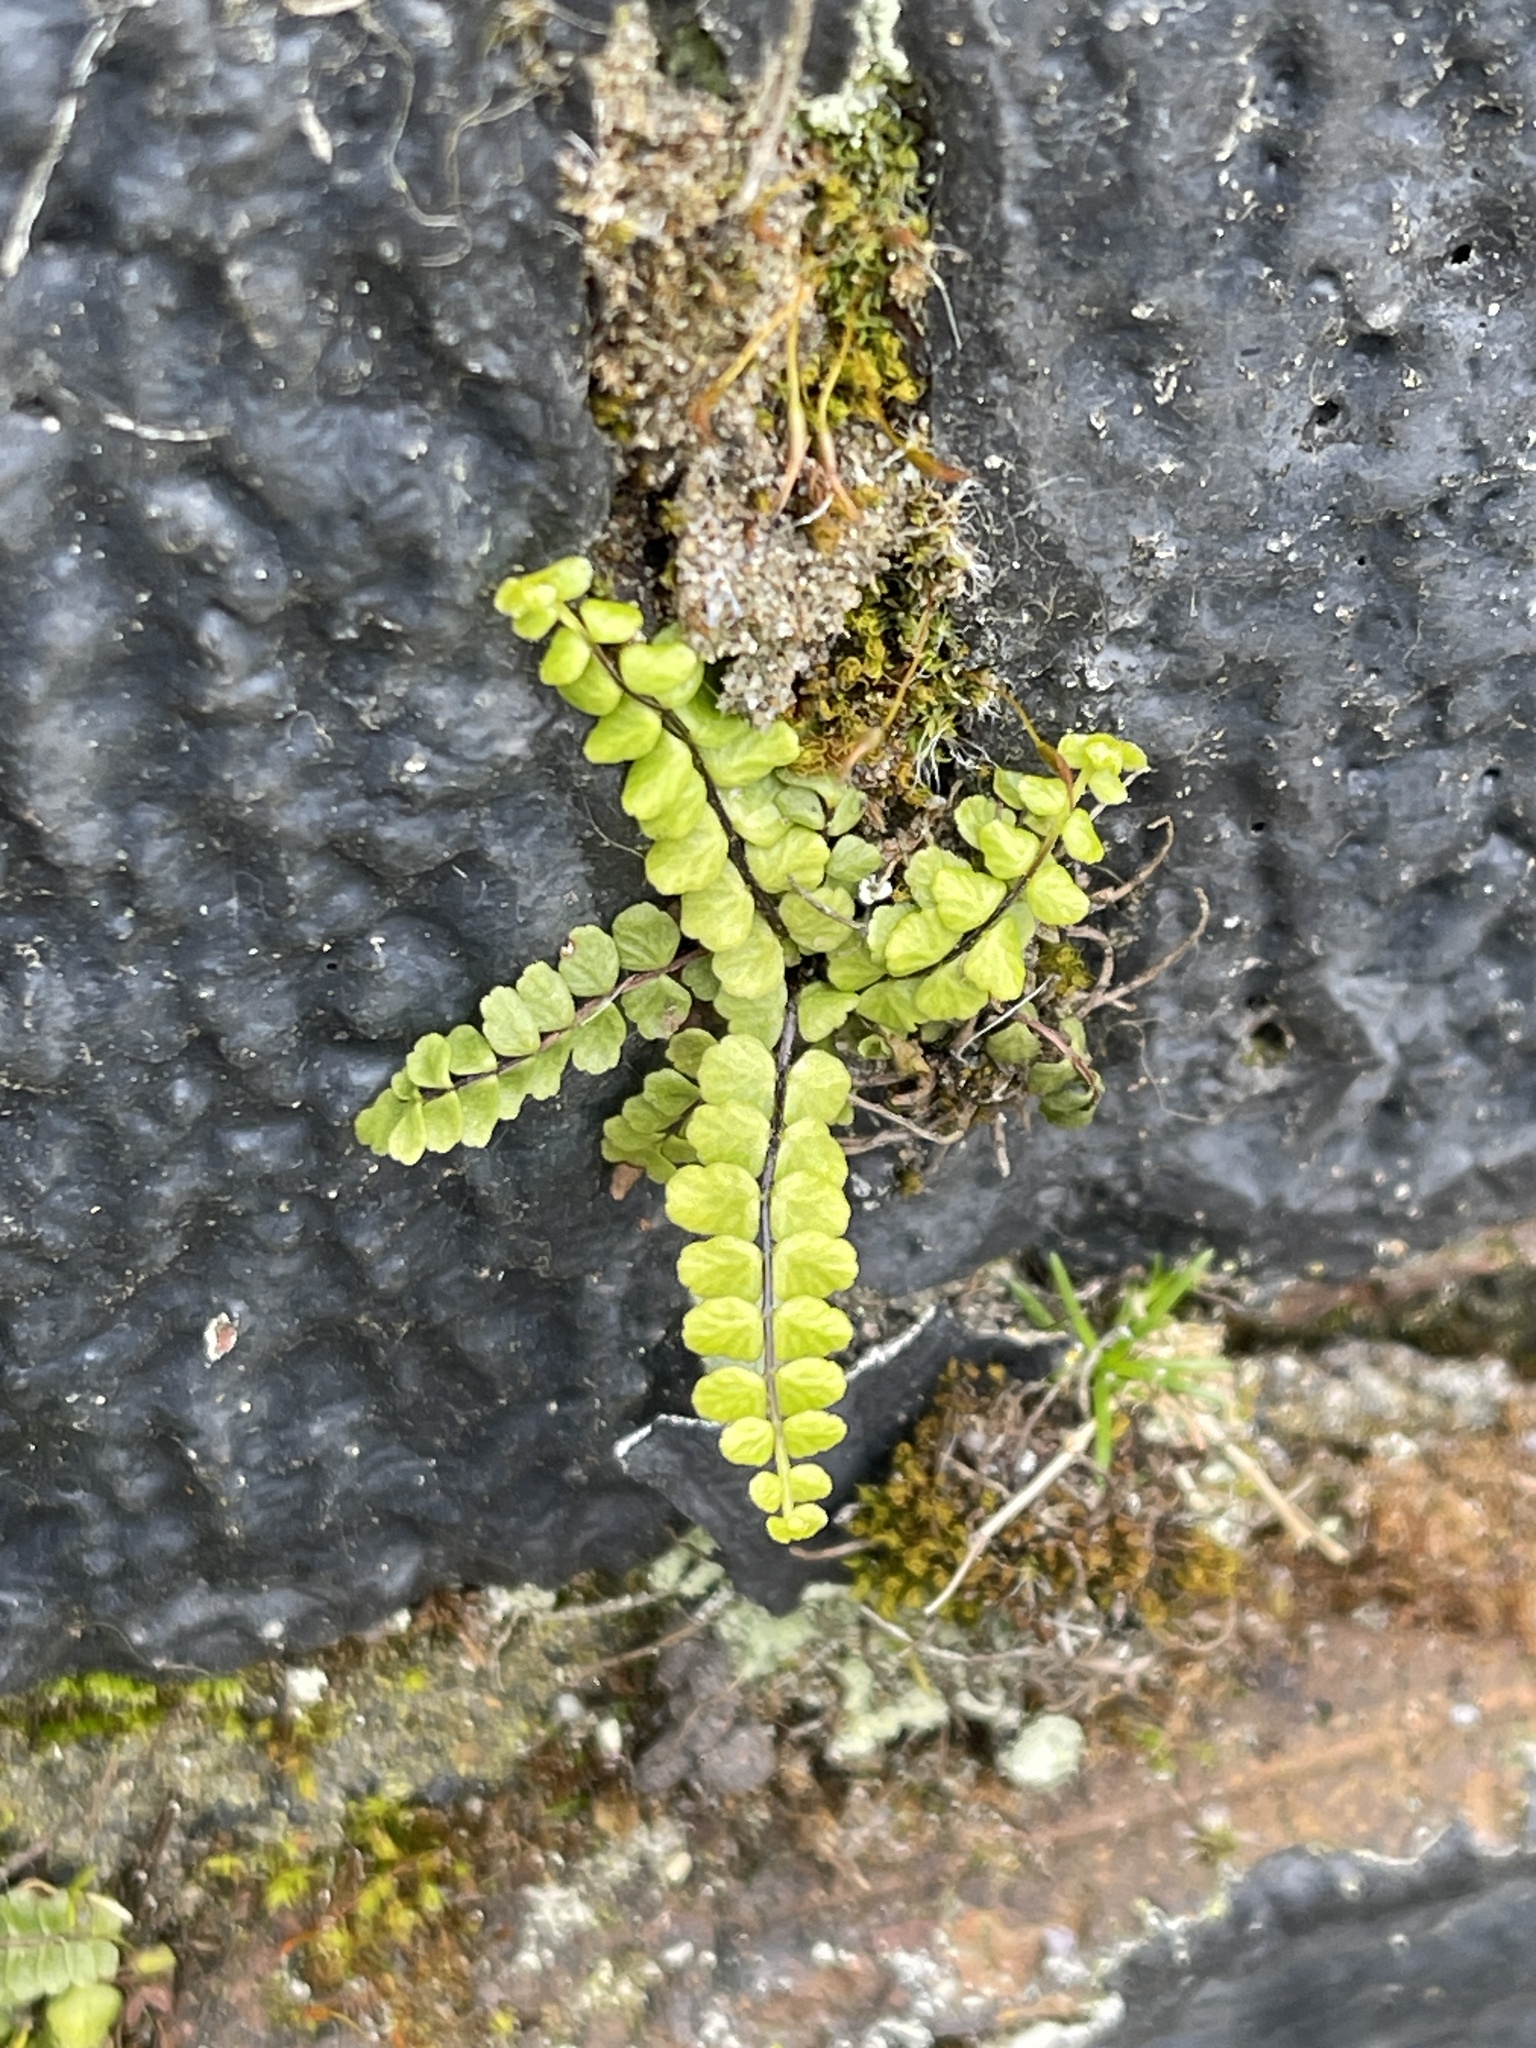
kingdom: Plantae
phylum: Tracheophyta
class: Polypodiopsida
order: Polypodiales
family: Aspleniaceae
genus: Asplenium
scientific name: Asplenium trichomanes
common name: Maidenhair spleenwort
